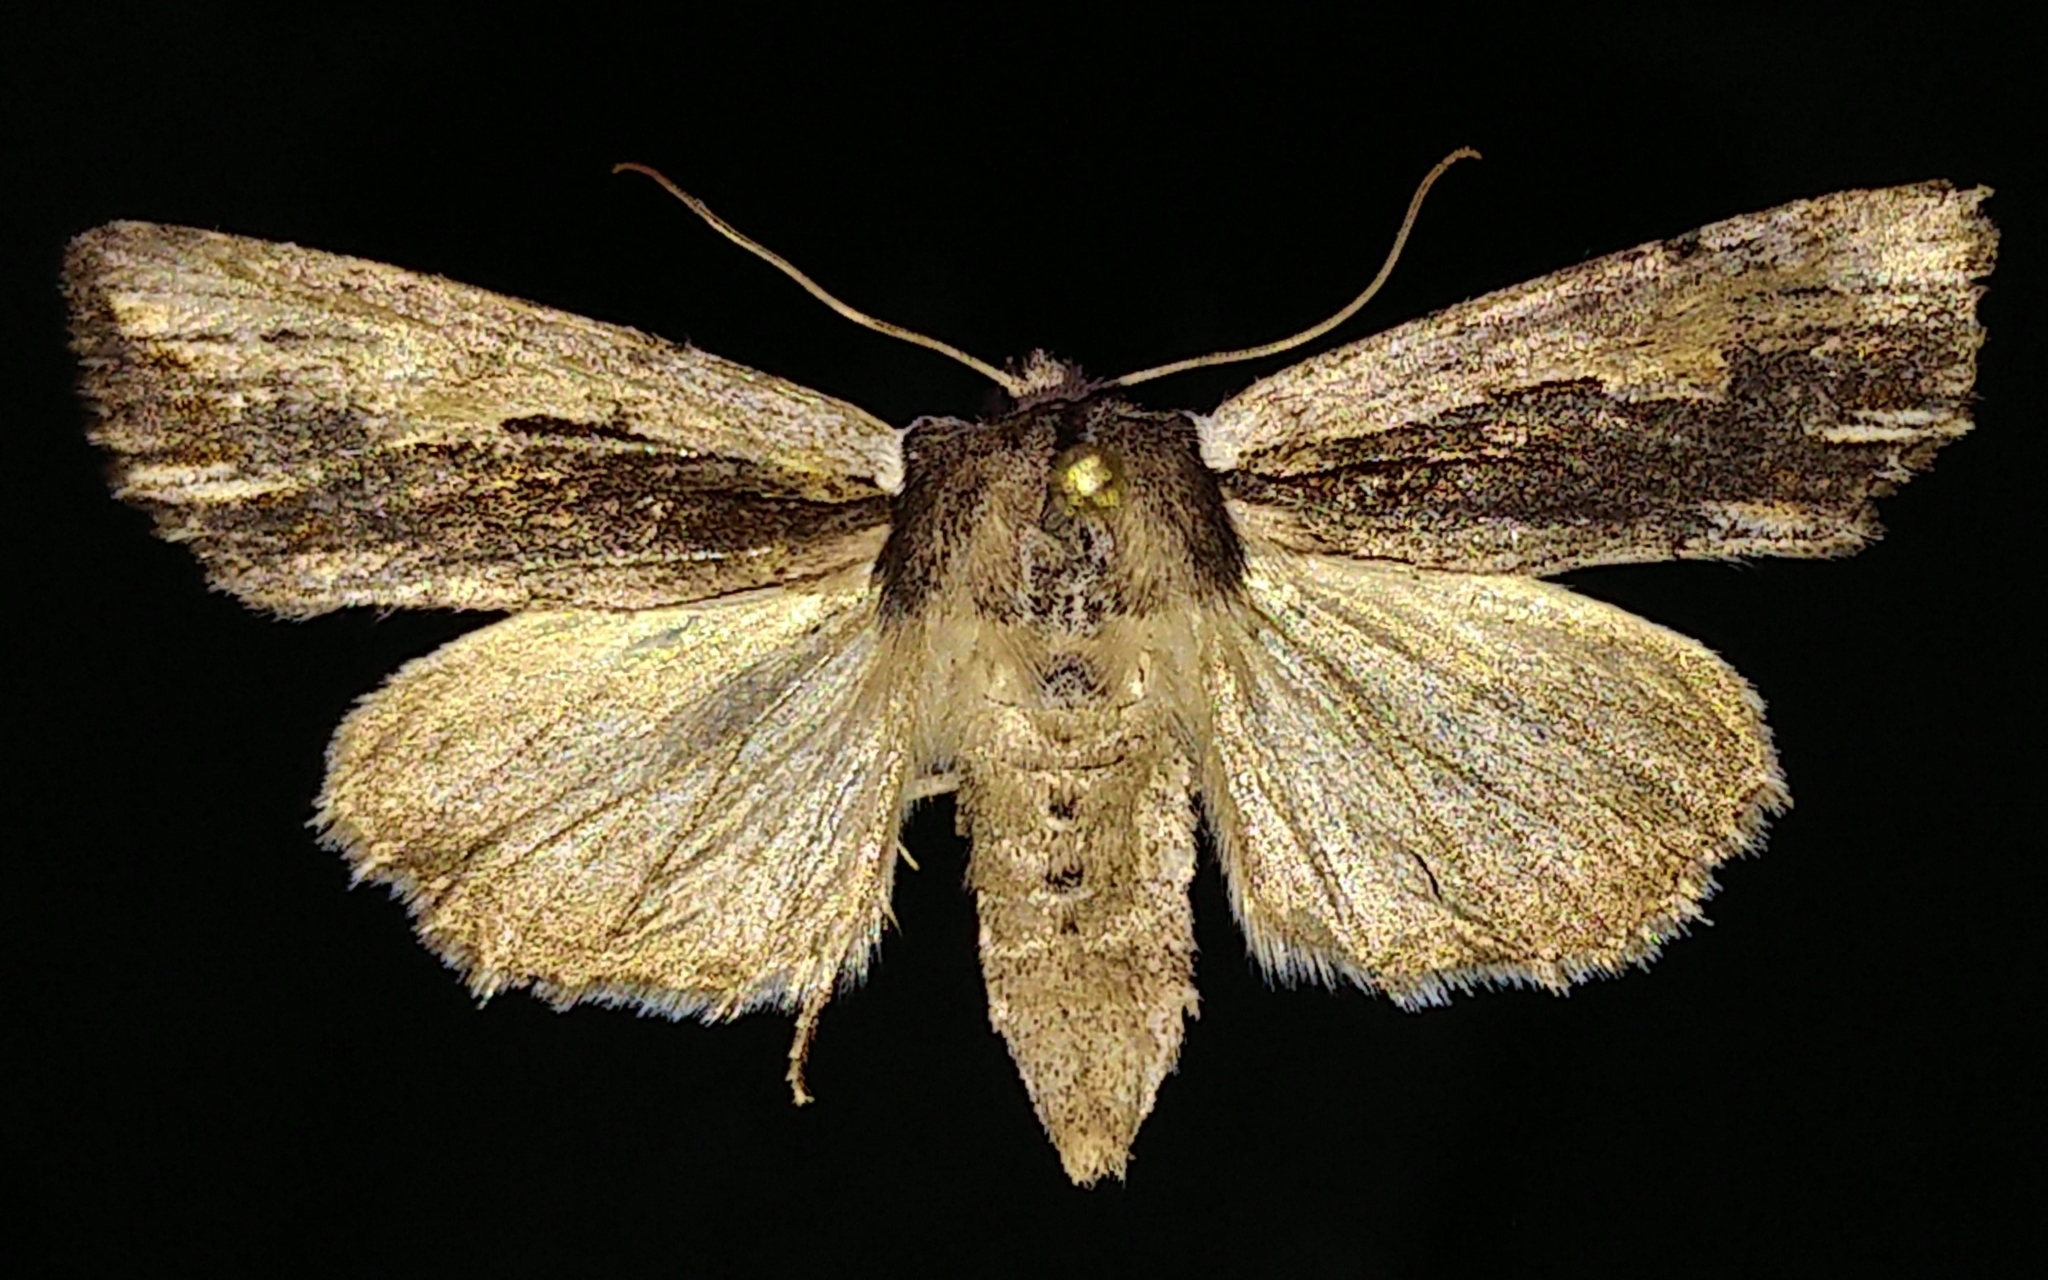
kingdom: Animalia
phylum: Arthropoda
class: Insecta
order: Lepidoptera
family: Noctuidae
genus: Achatia
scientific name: Achatia evicta
